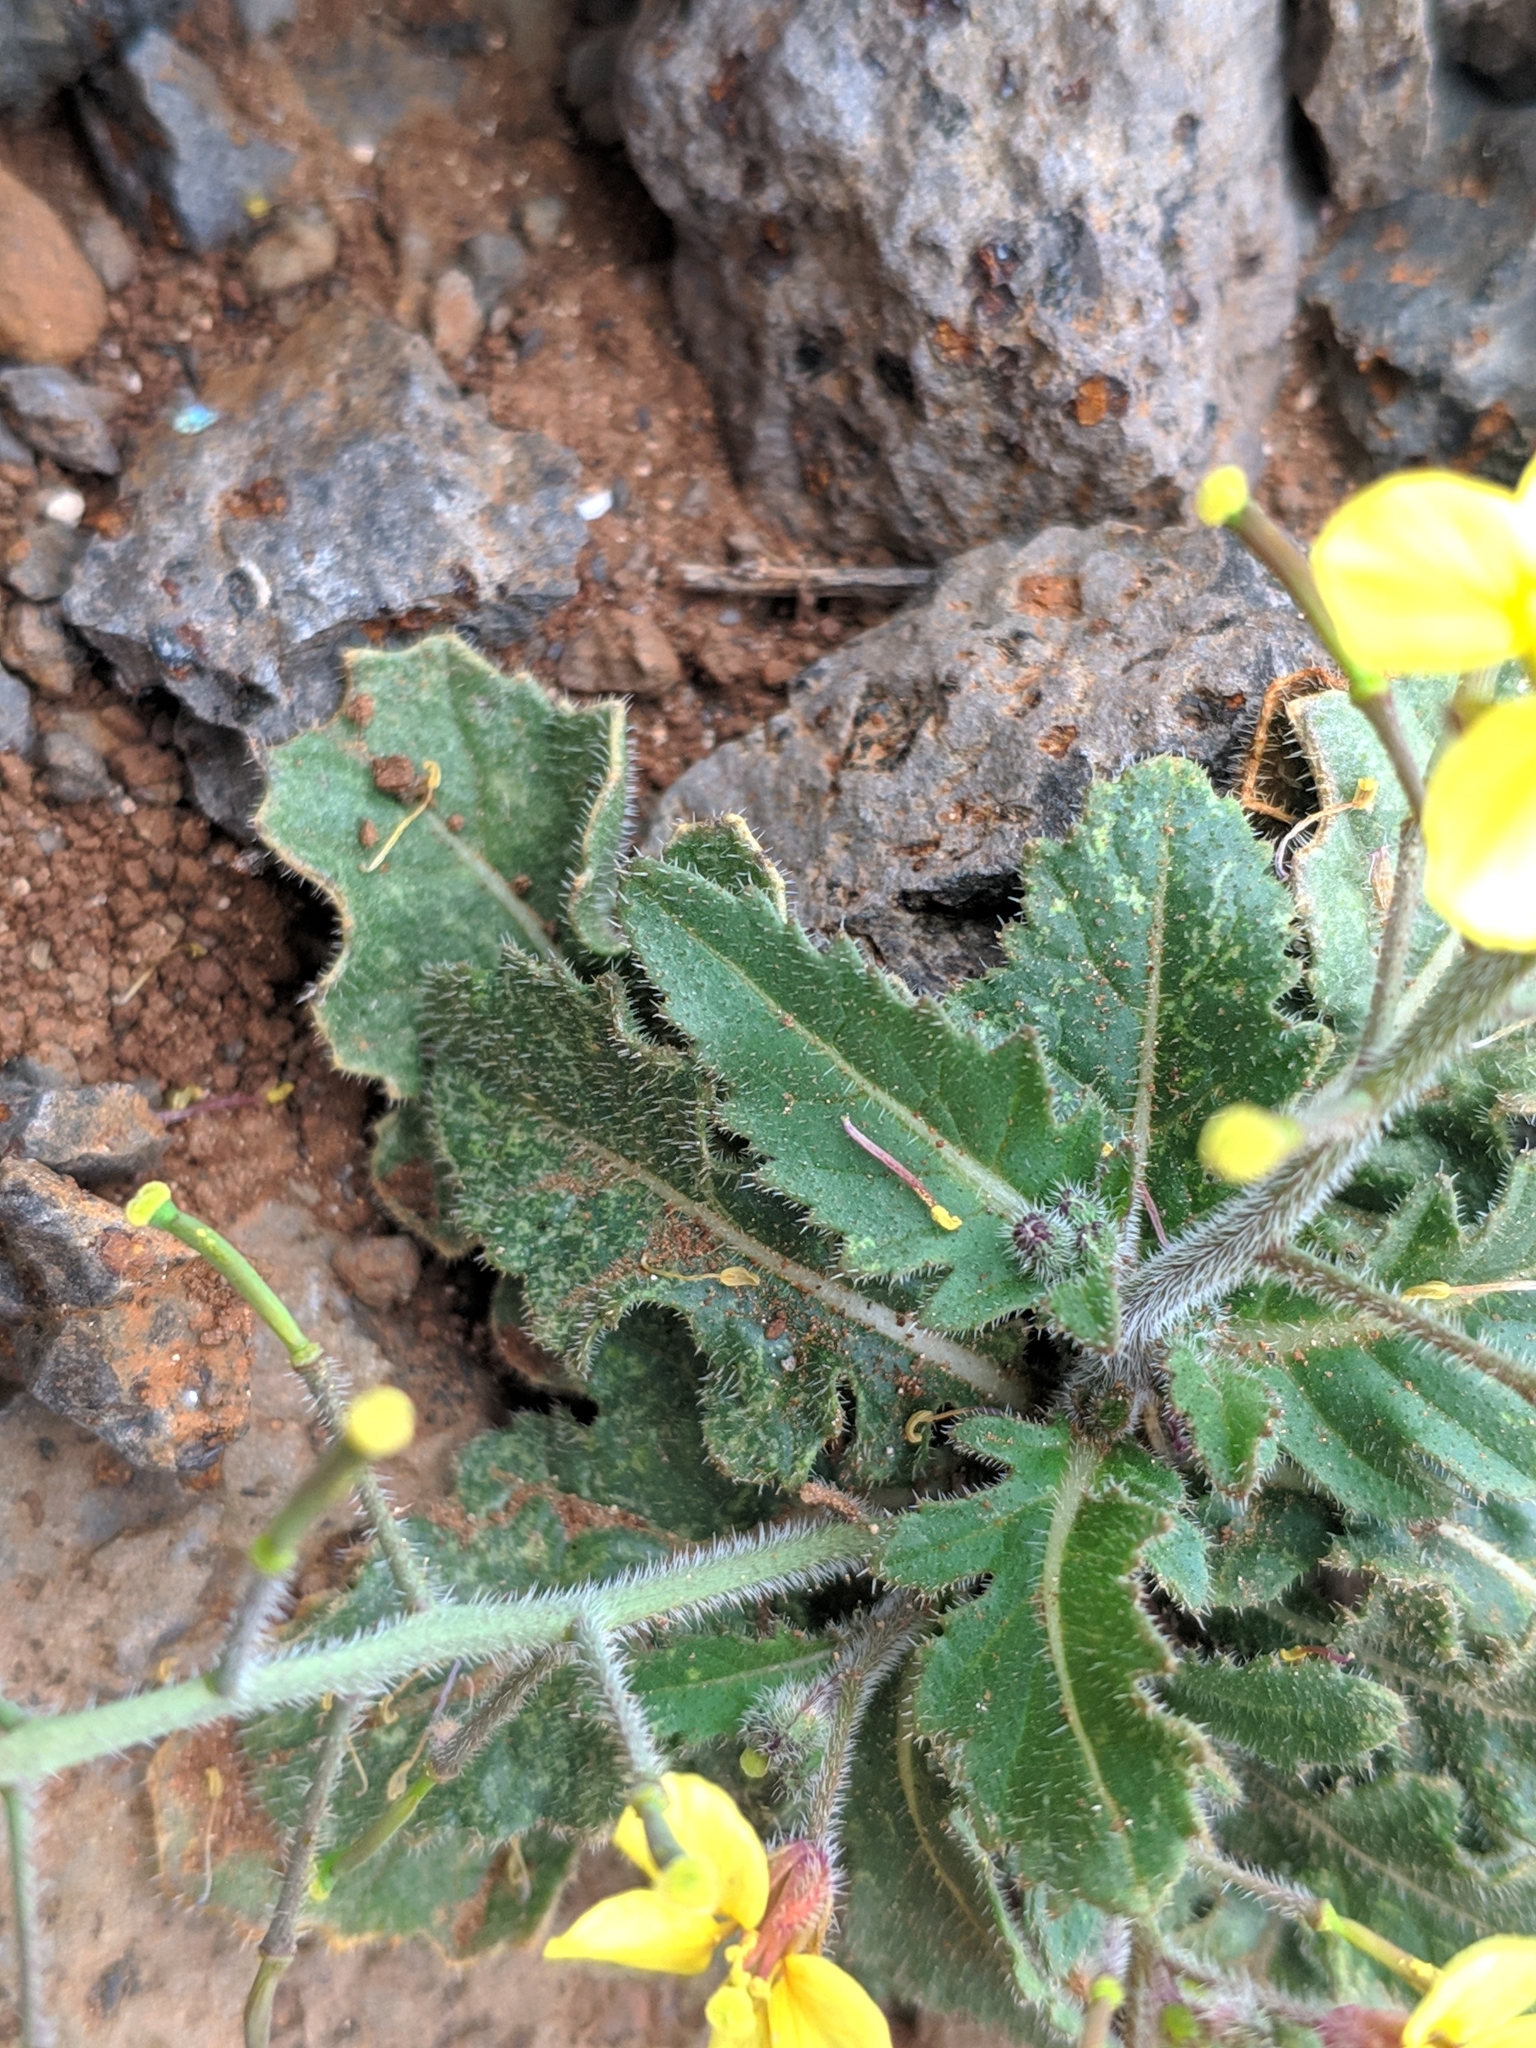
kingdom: Plantae
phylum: Tracheophyta
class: Magnoliopsida
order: Brassicales
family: Brassicaceae
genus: Erucastrum
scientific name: Erucastrum canariense
